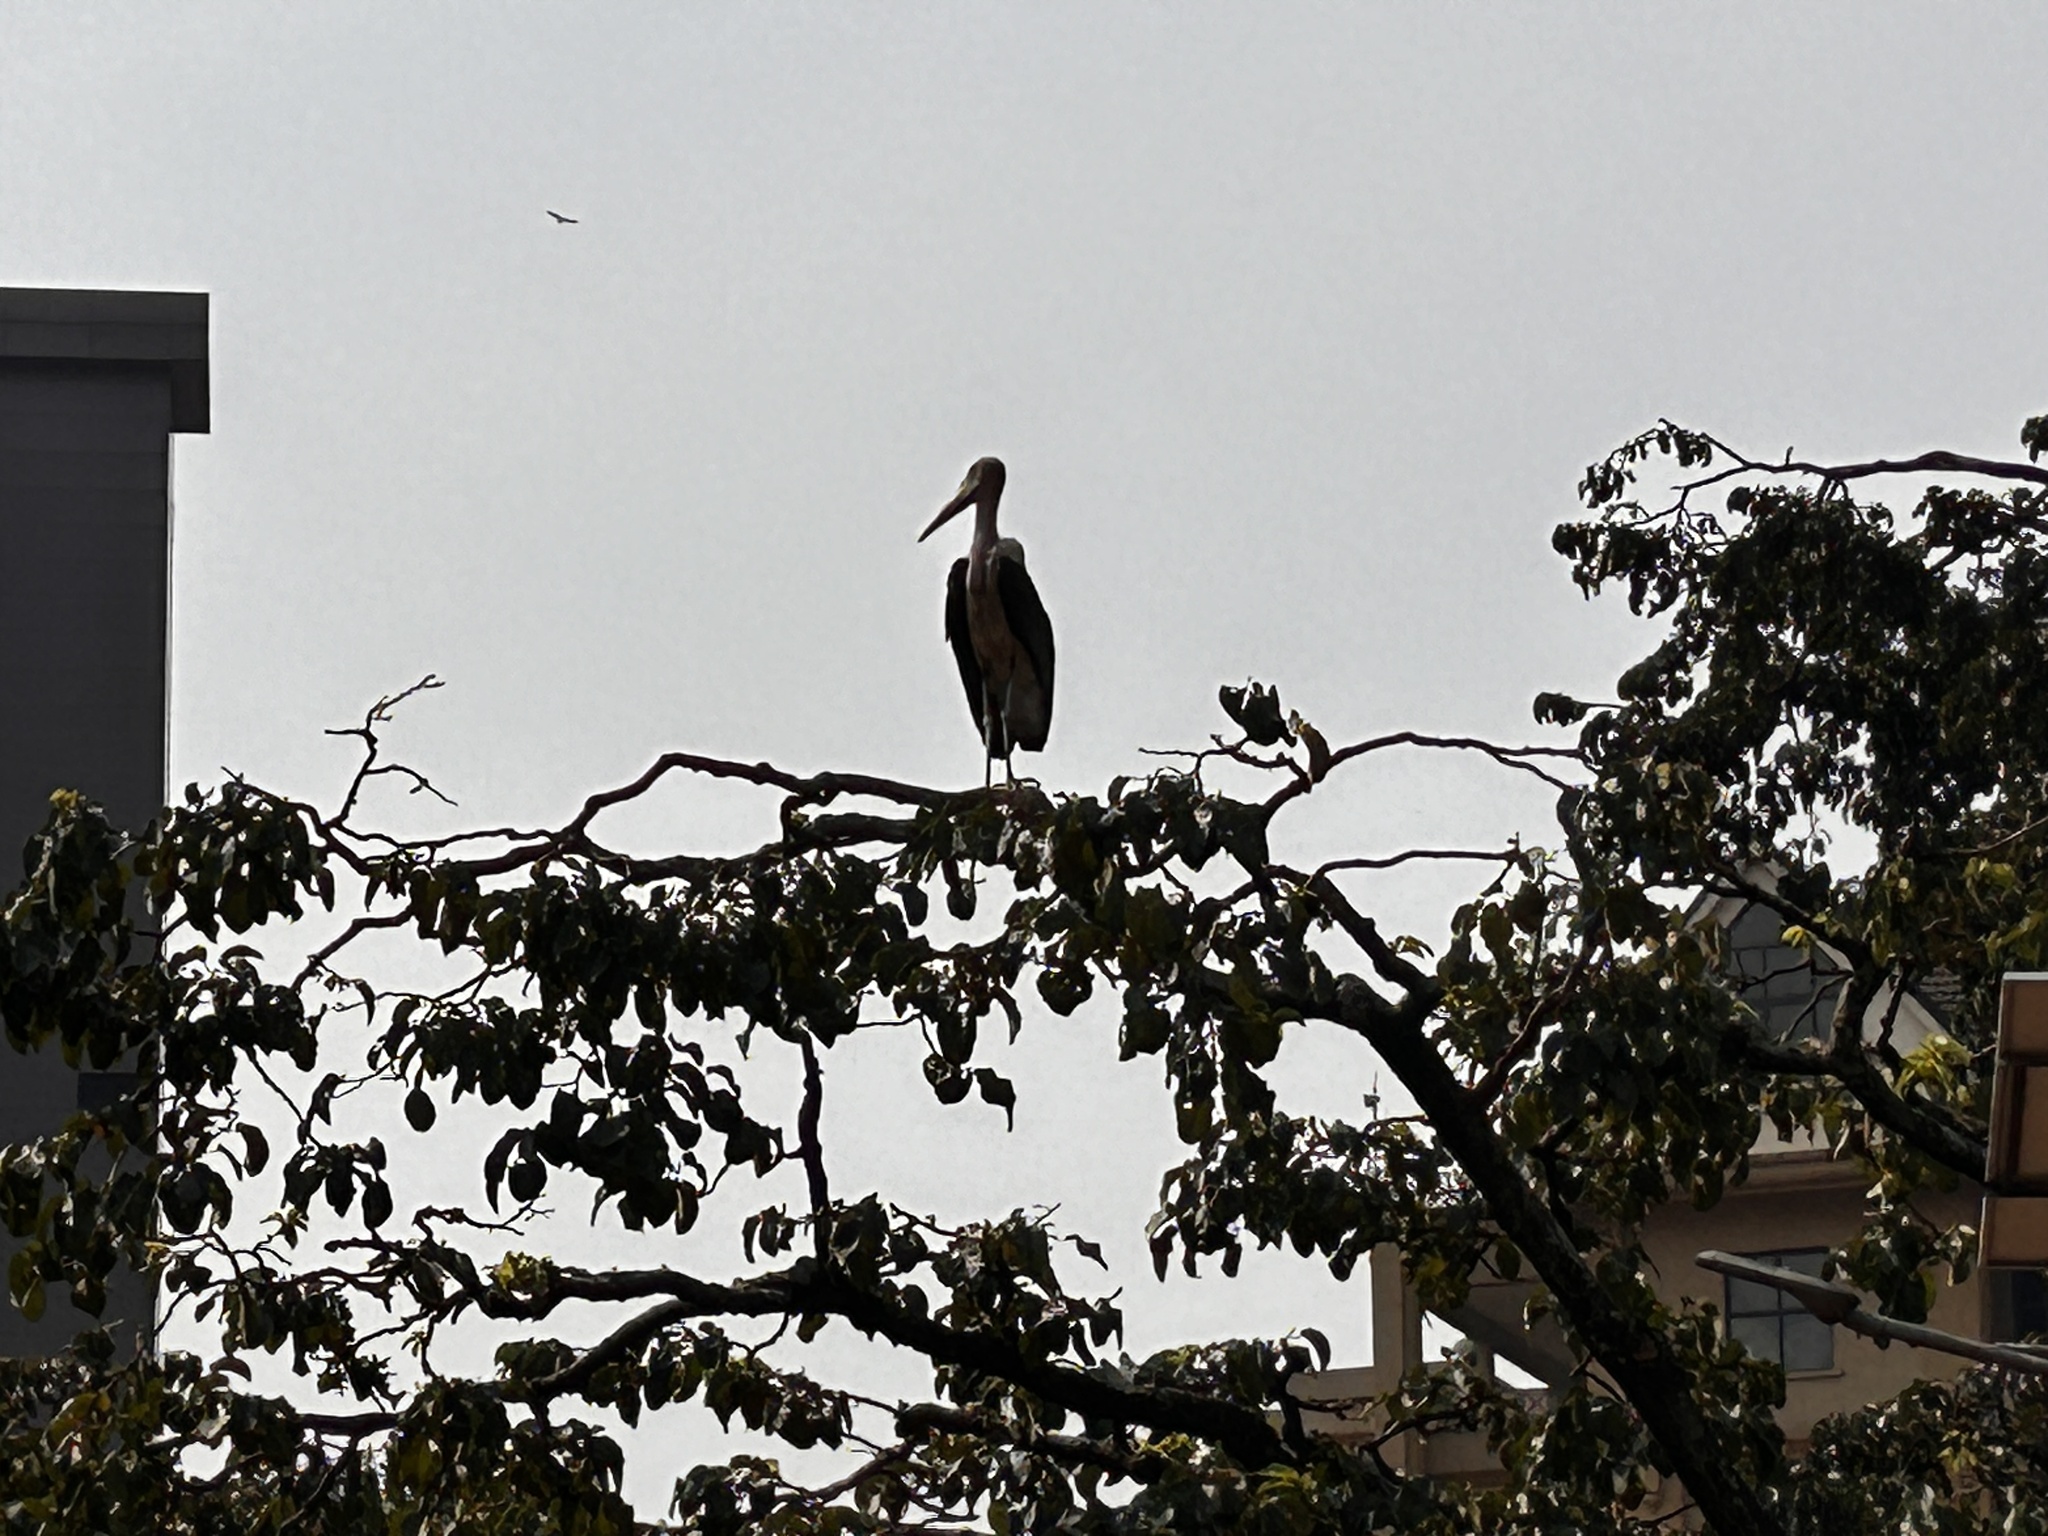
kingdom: Animalia
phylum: Chordata
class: Aves
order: Ciconiiformes
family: Ciconiidae
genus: Leptoptilos
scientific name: Leptoptilos crumenifer
